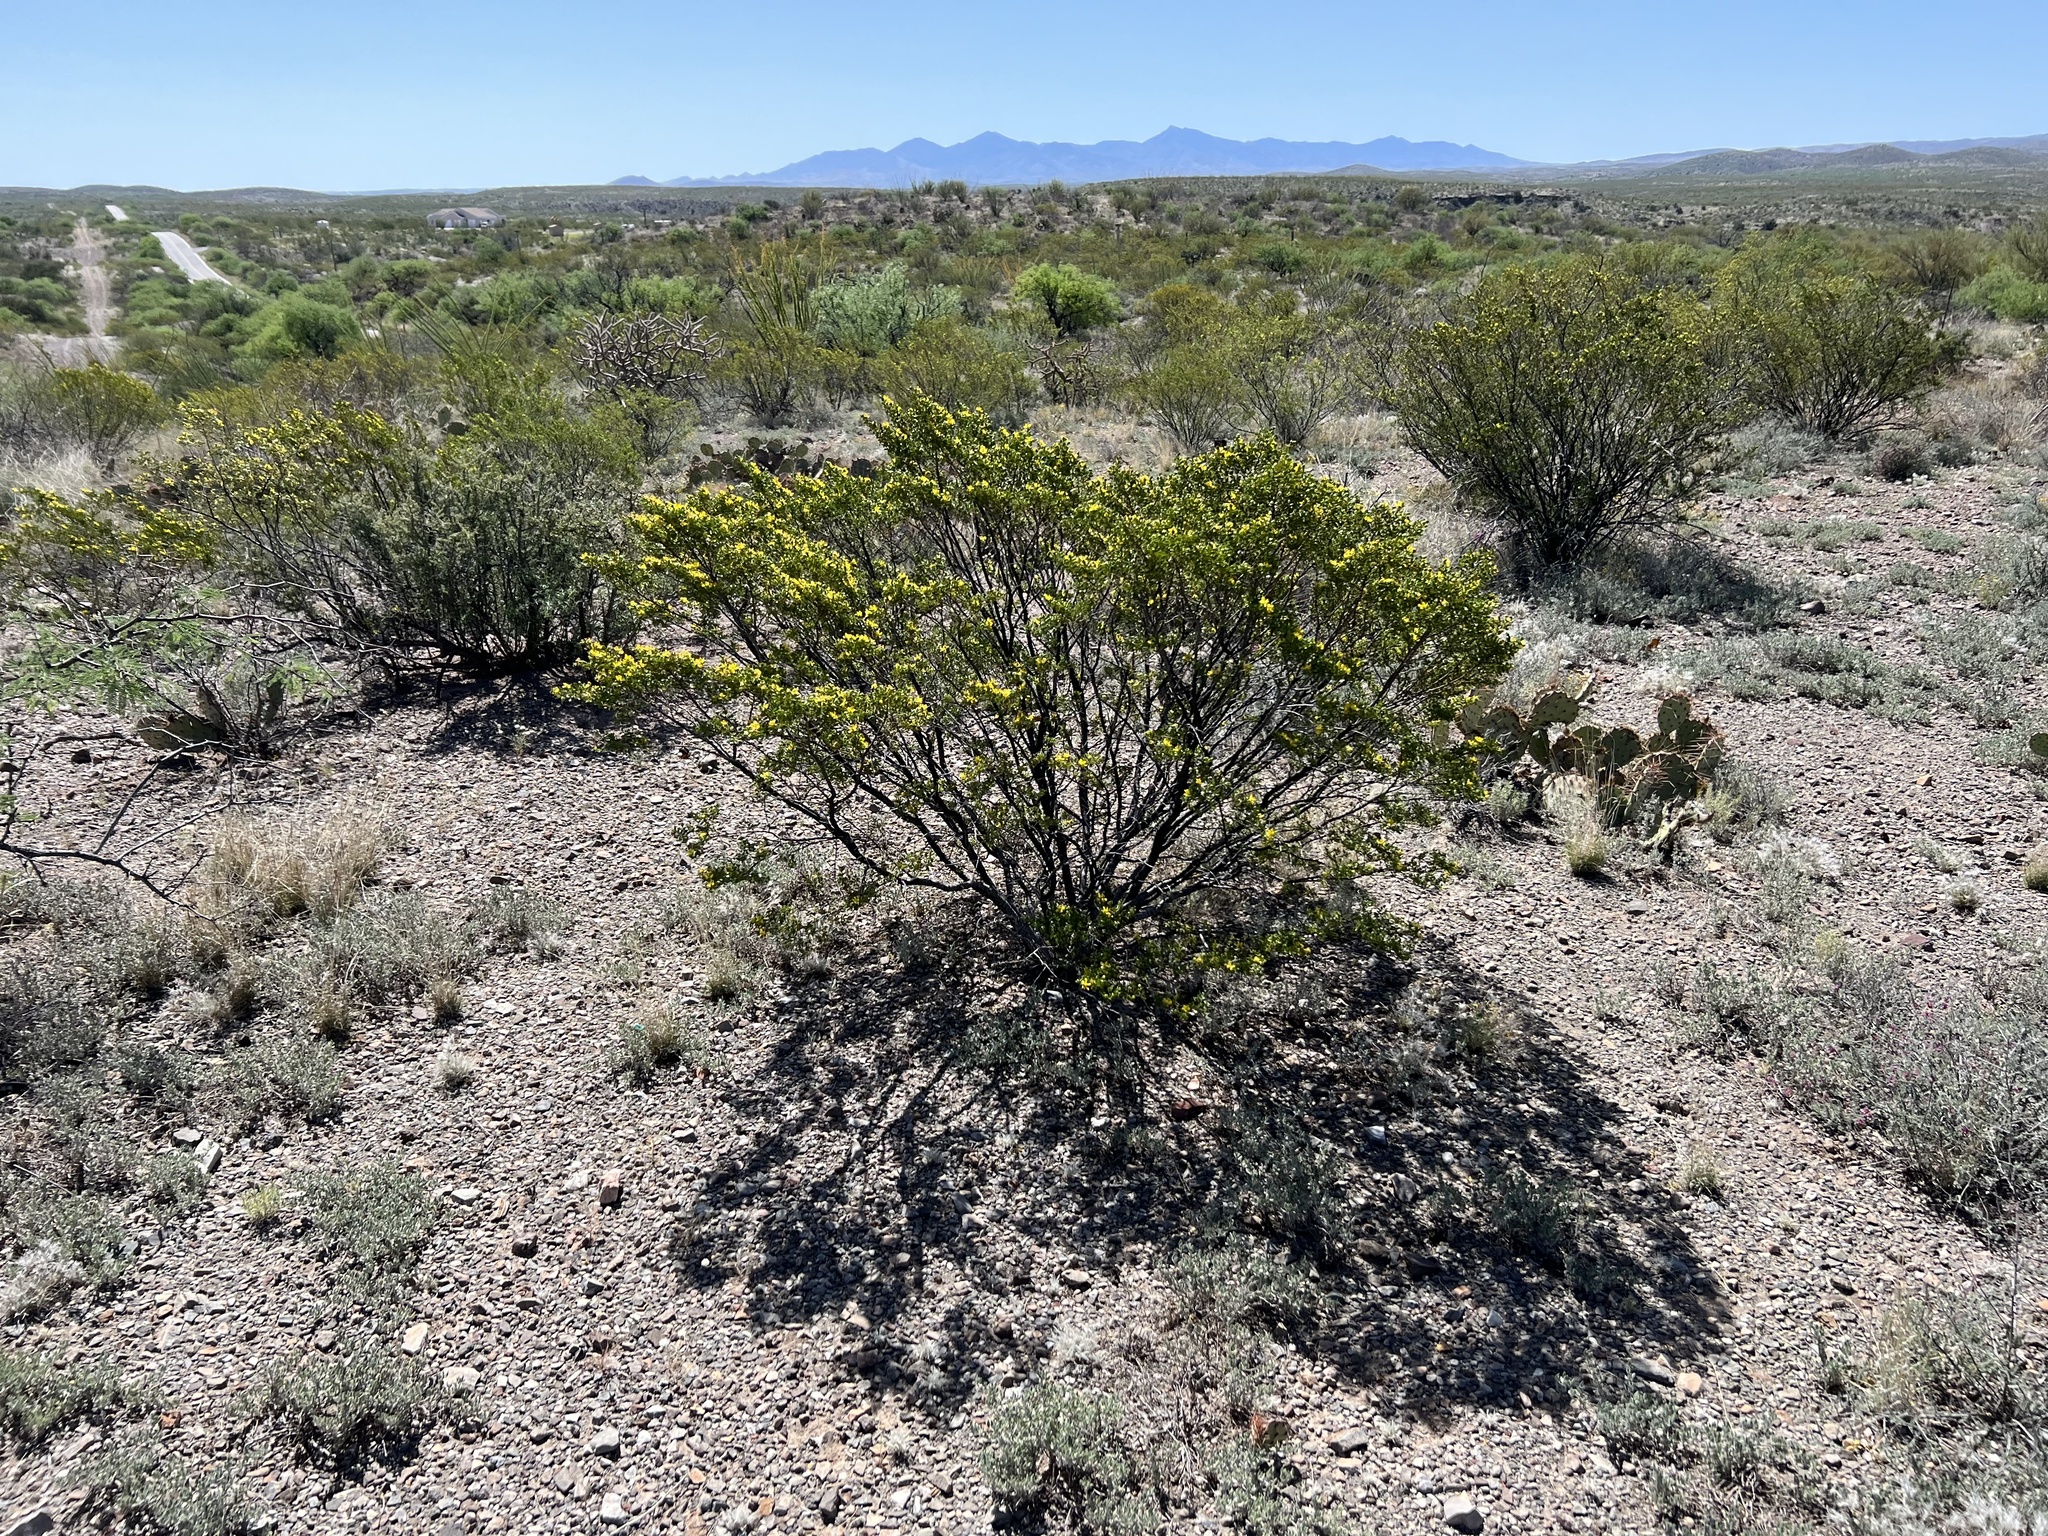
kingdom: Plantae
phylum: Tracheophyta
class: Magnoliopsida
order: Zygophyllales
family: Zygophyllaceae
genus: Larrea
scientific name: Larrea tridentata
